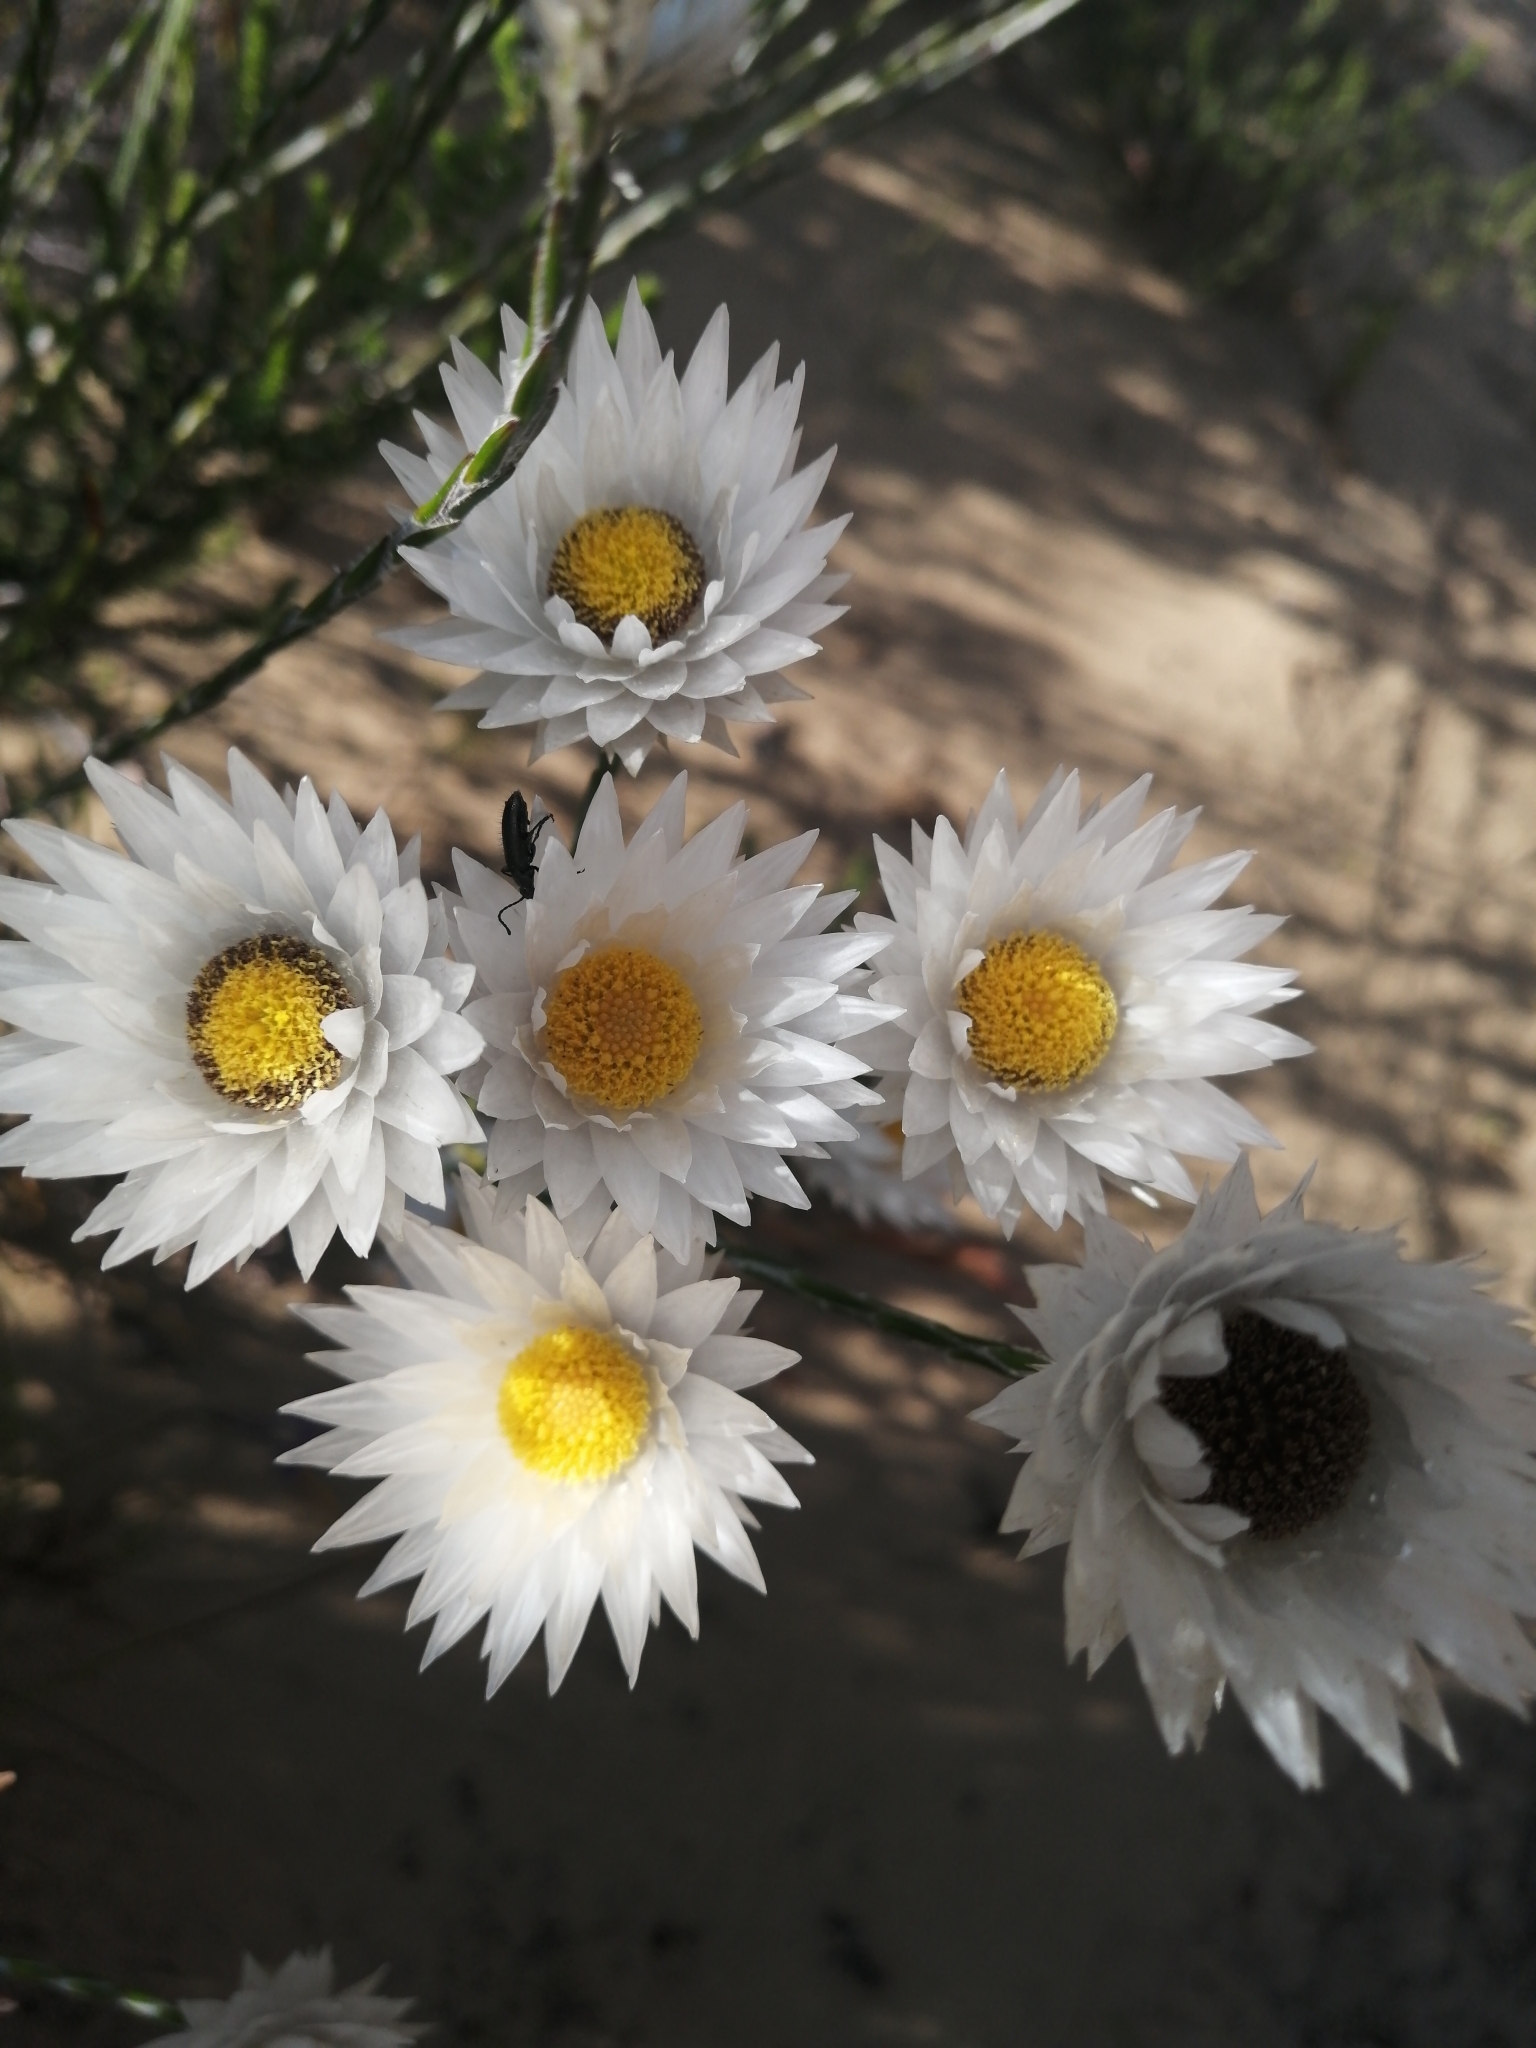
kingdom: Plantae
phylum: Tracheophyta
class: Magnoliopsida
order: Asterales
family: Asteraceae
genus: Edmondia
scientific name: Edmondia sesamoides
